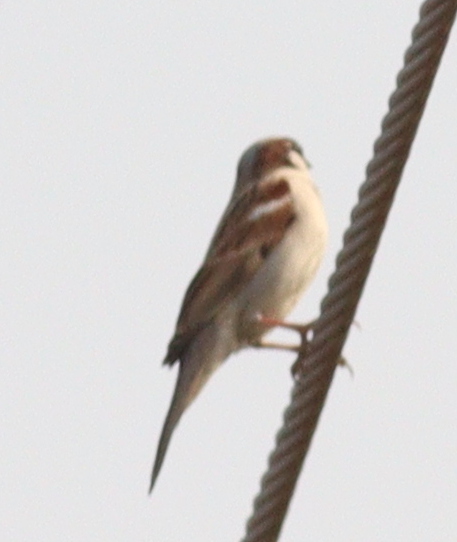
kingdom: Animalia
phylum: Chordata
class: Aves
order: Passeriformes
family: Passeridae
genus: Passer
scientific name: Passer domesticus
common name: House sparrow
